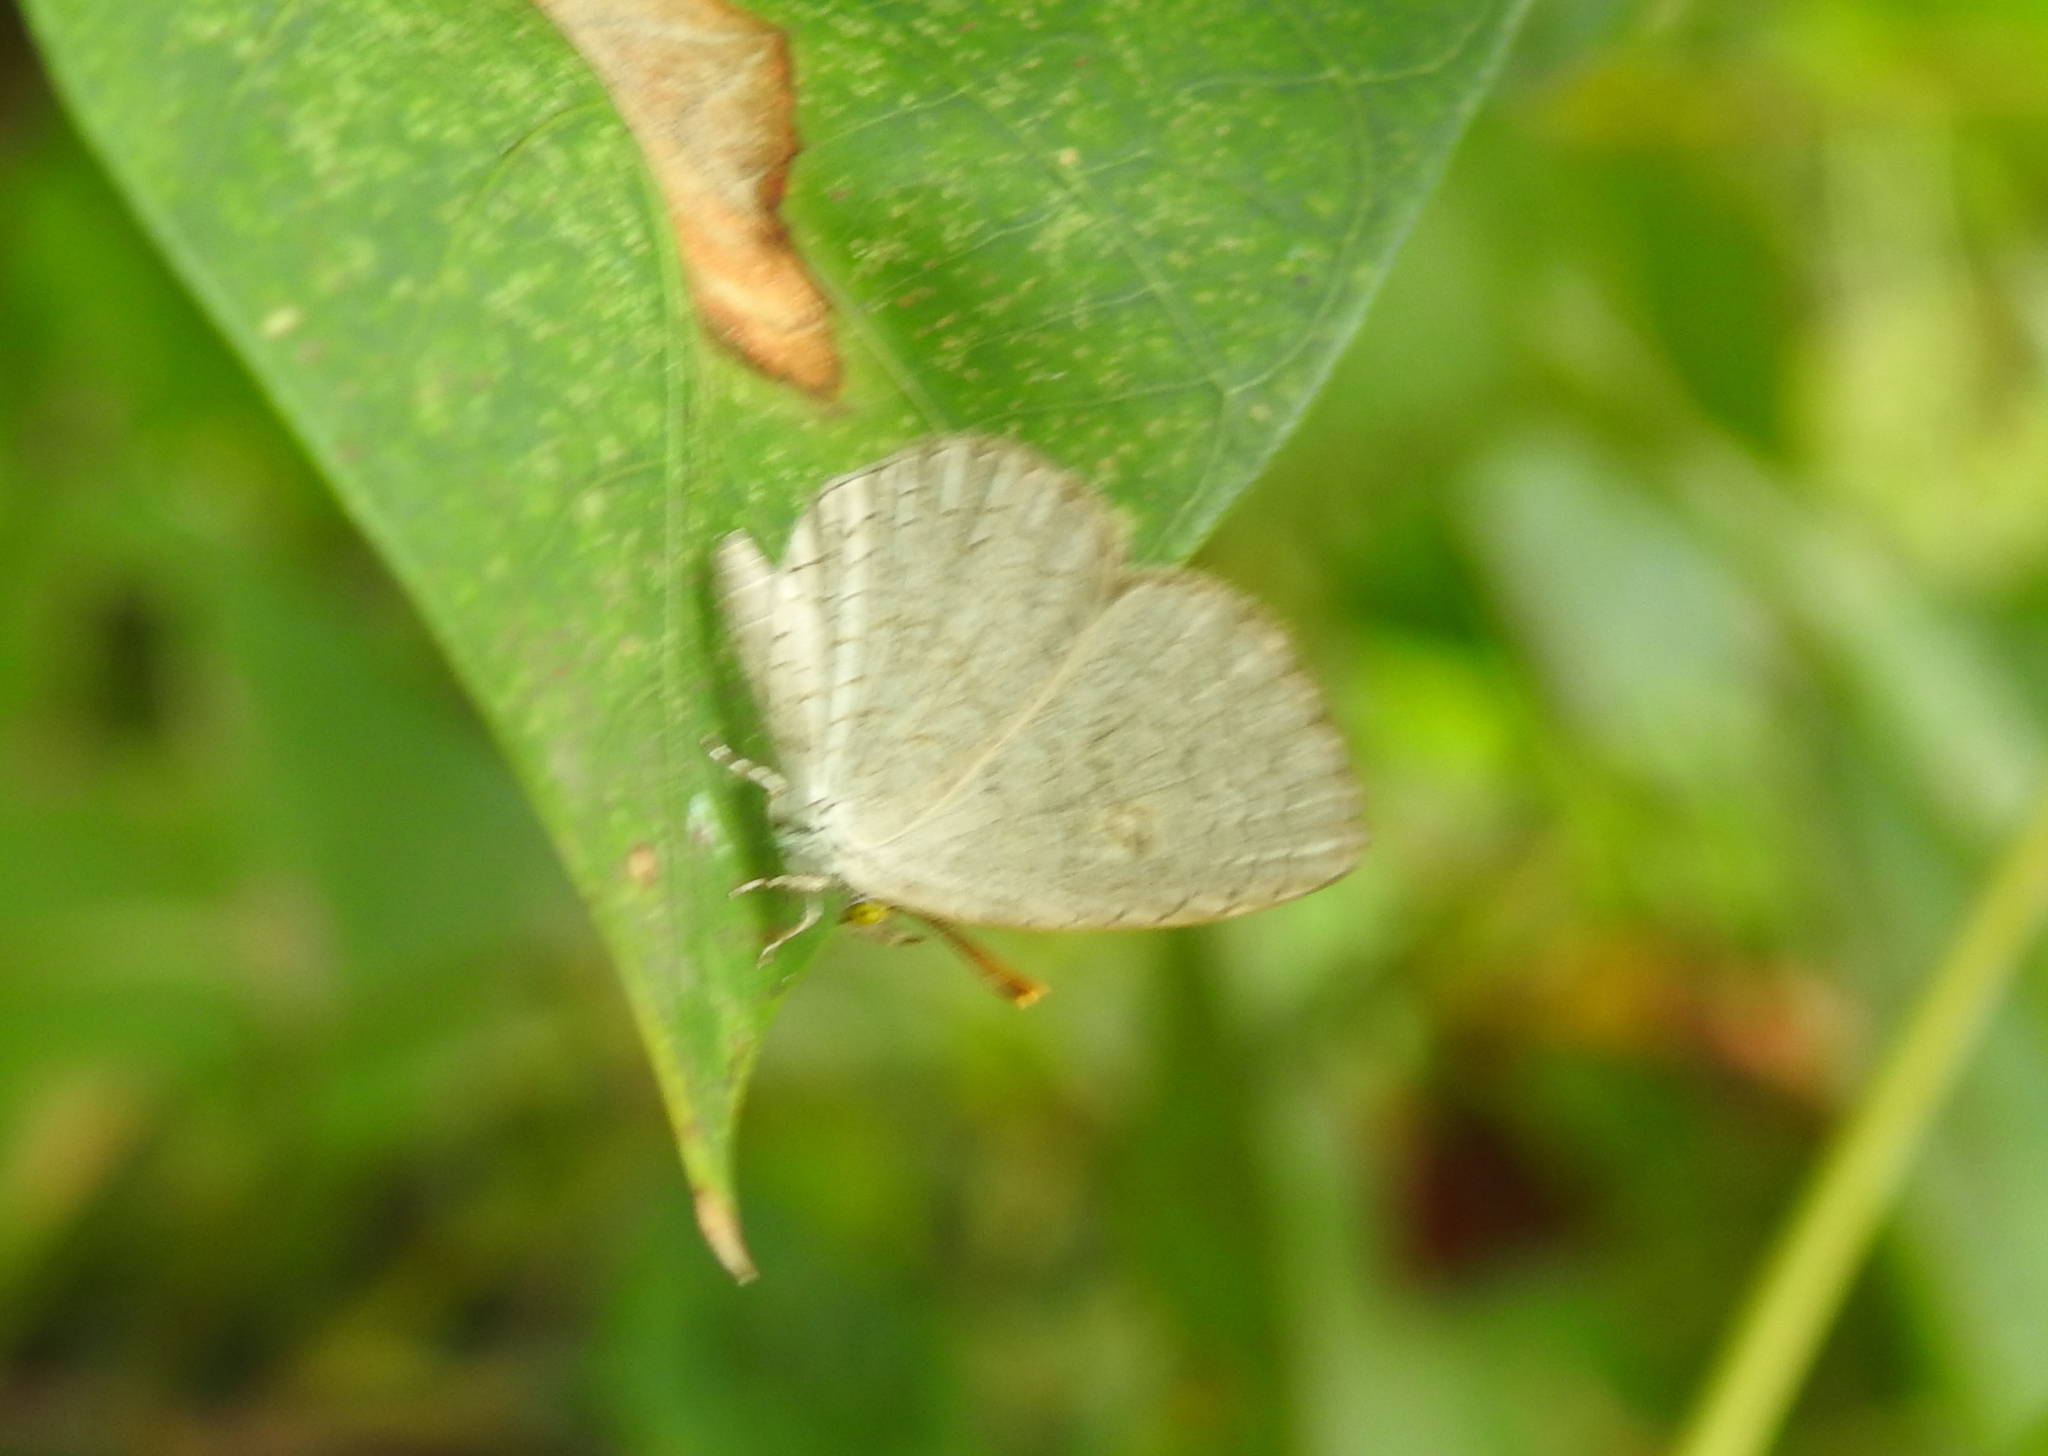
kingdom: Animalia
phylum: Arthropoda
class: Insecta
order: Lepidoptera
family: Lycaenidae
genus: Spalgis
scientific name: Spalgis epius
